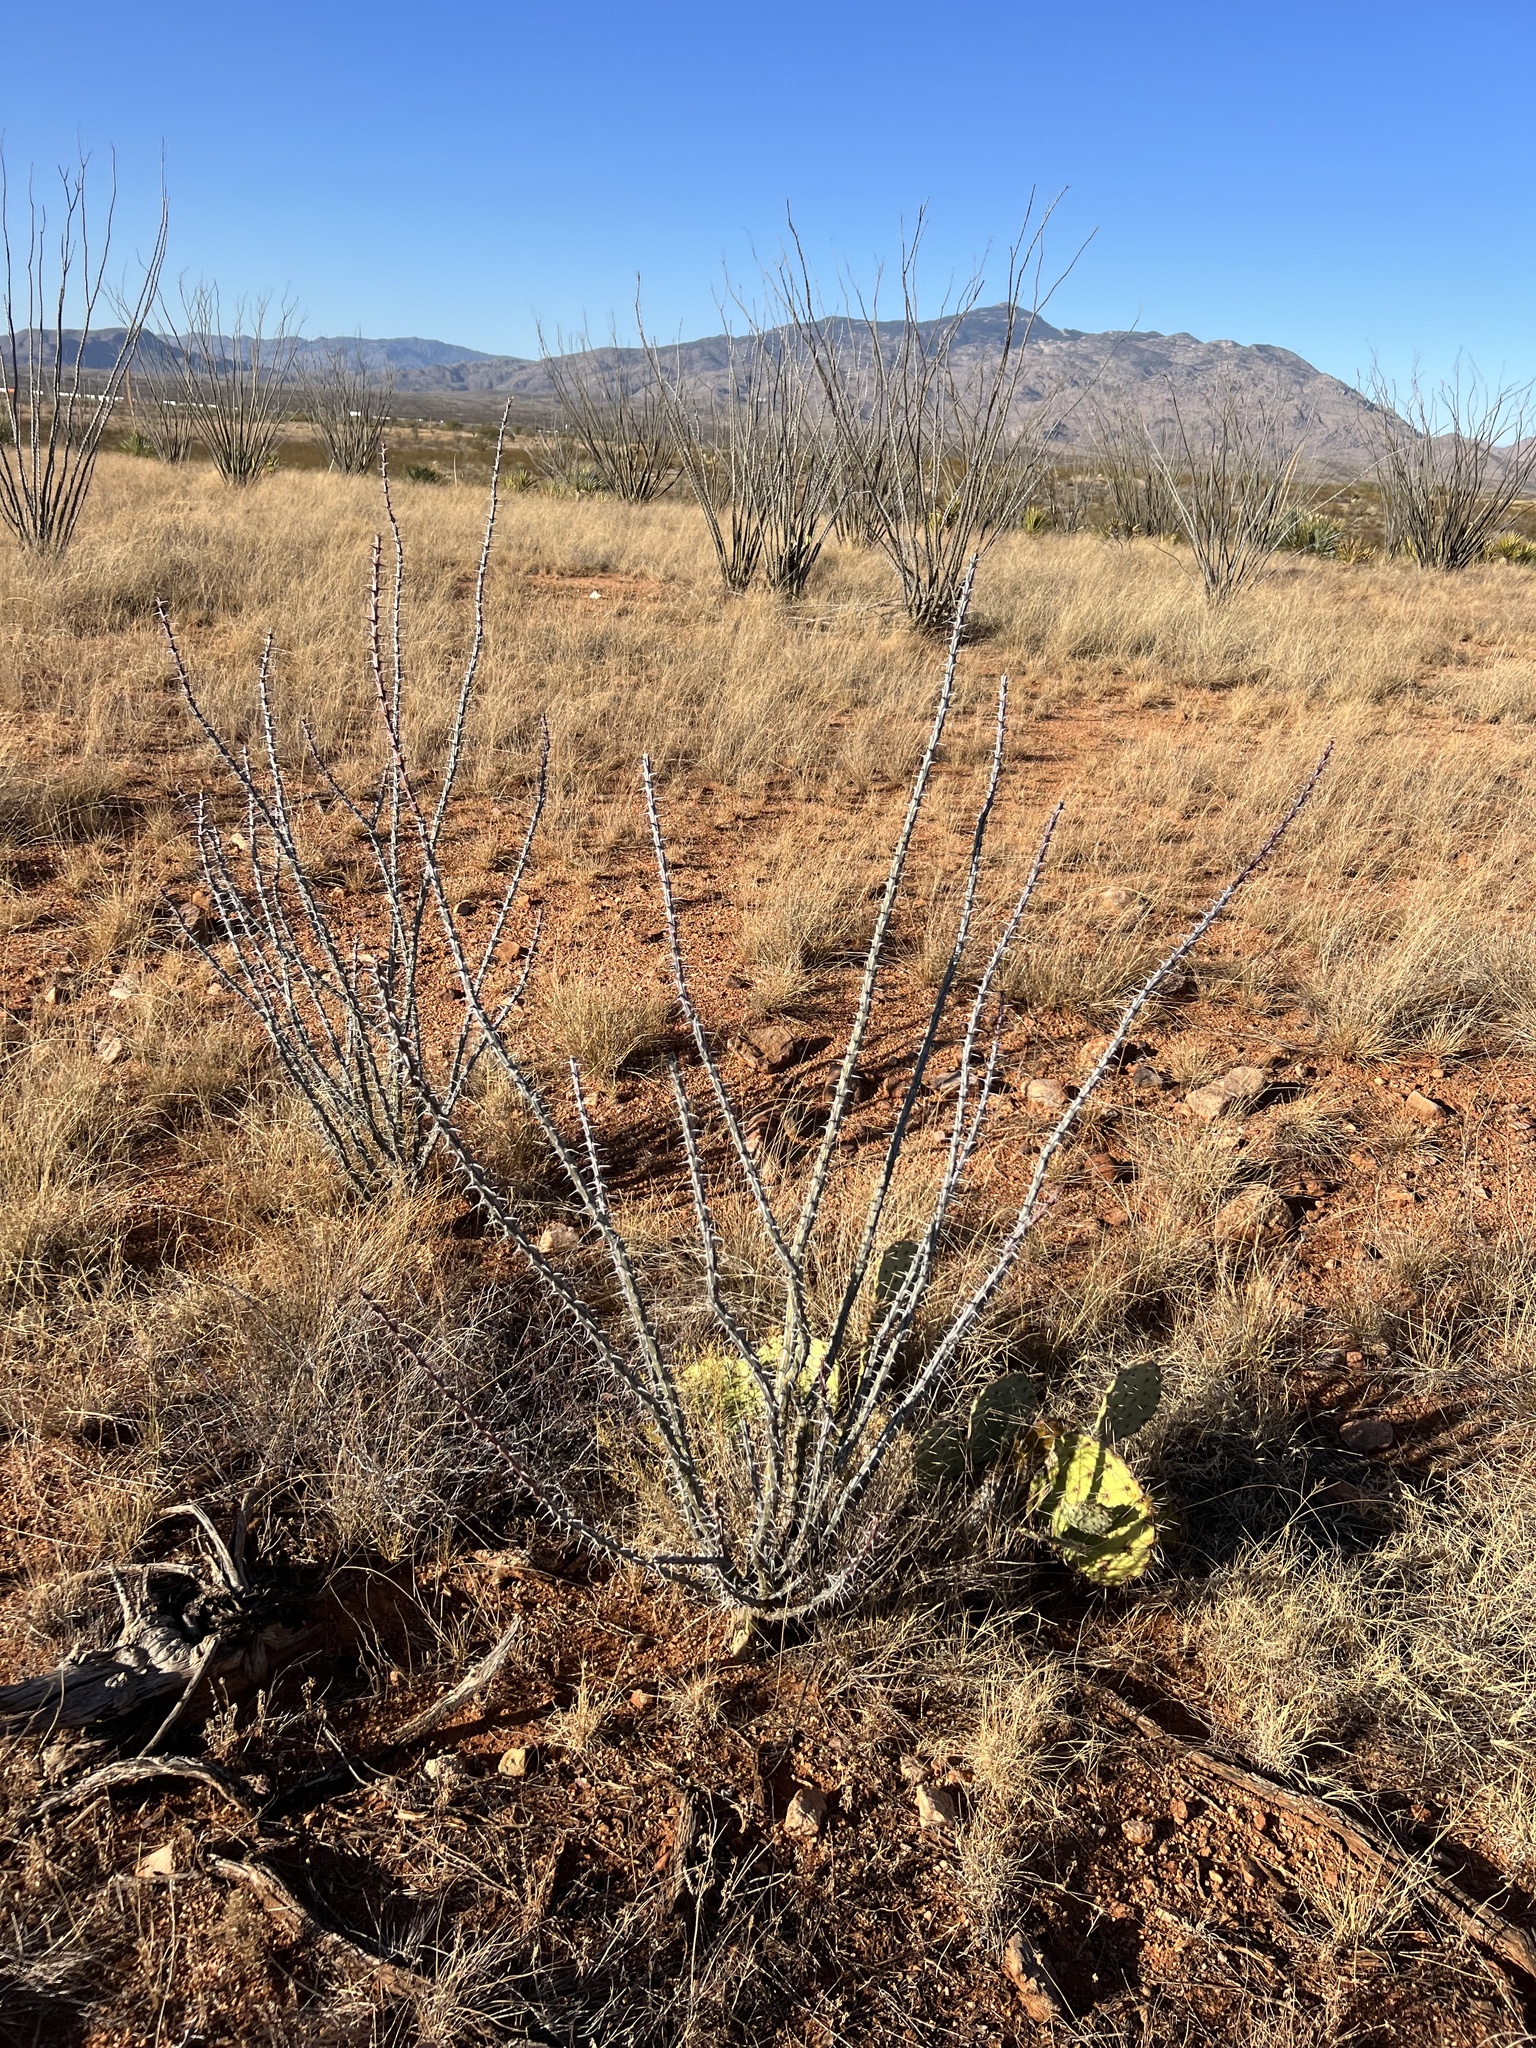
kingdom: Plantae
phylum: Tracheophyta
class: Magnoliopsida
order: Ericales
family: Fouquieriaceae
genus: Fouquieria
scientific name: Fouquieria splendens
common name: Vine-cactus
